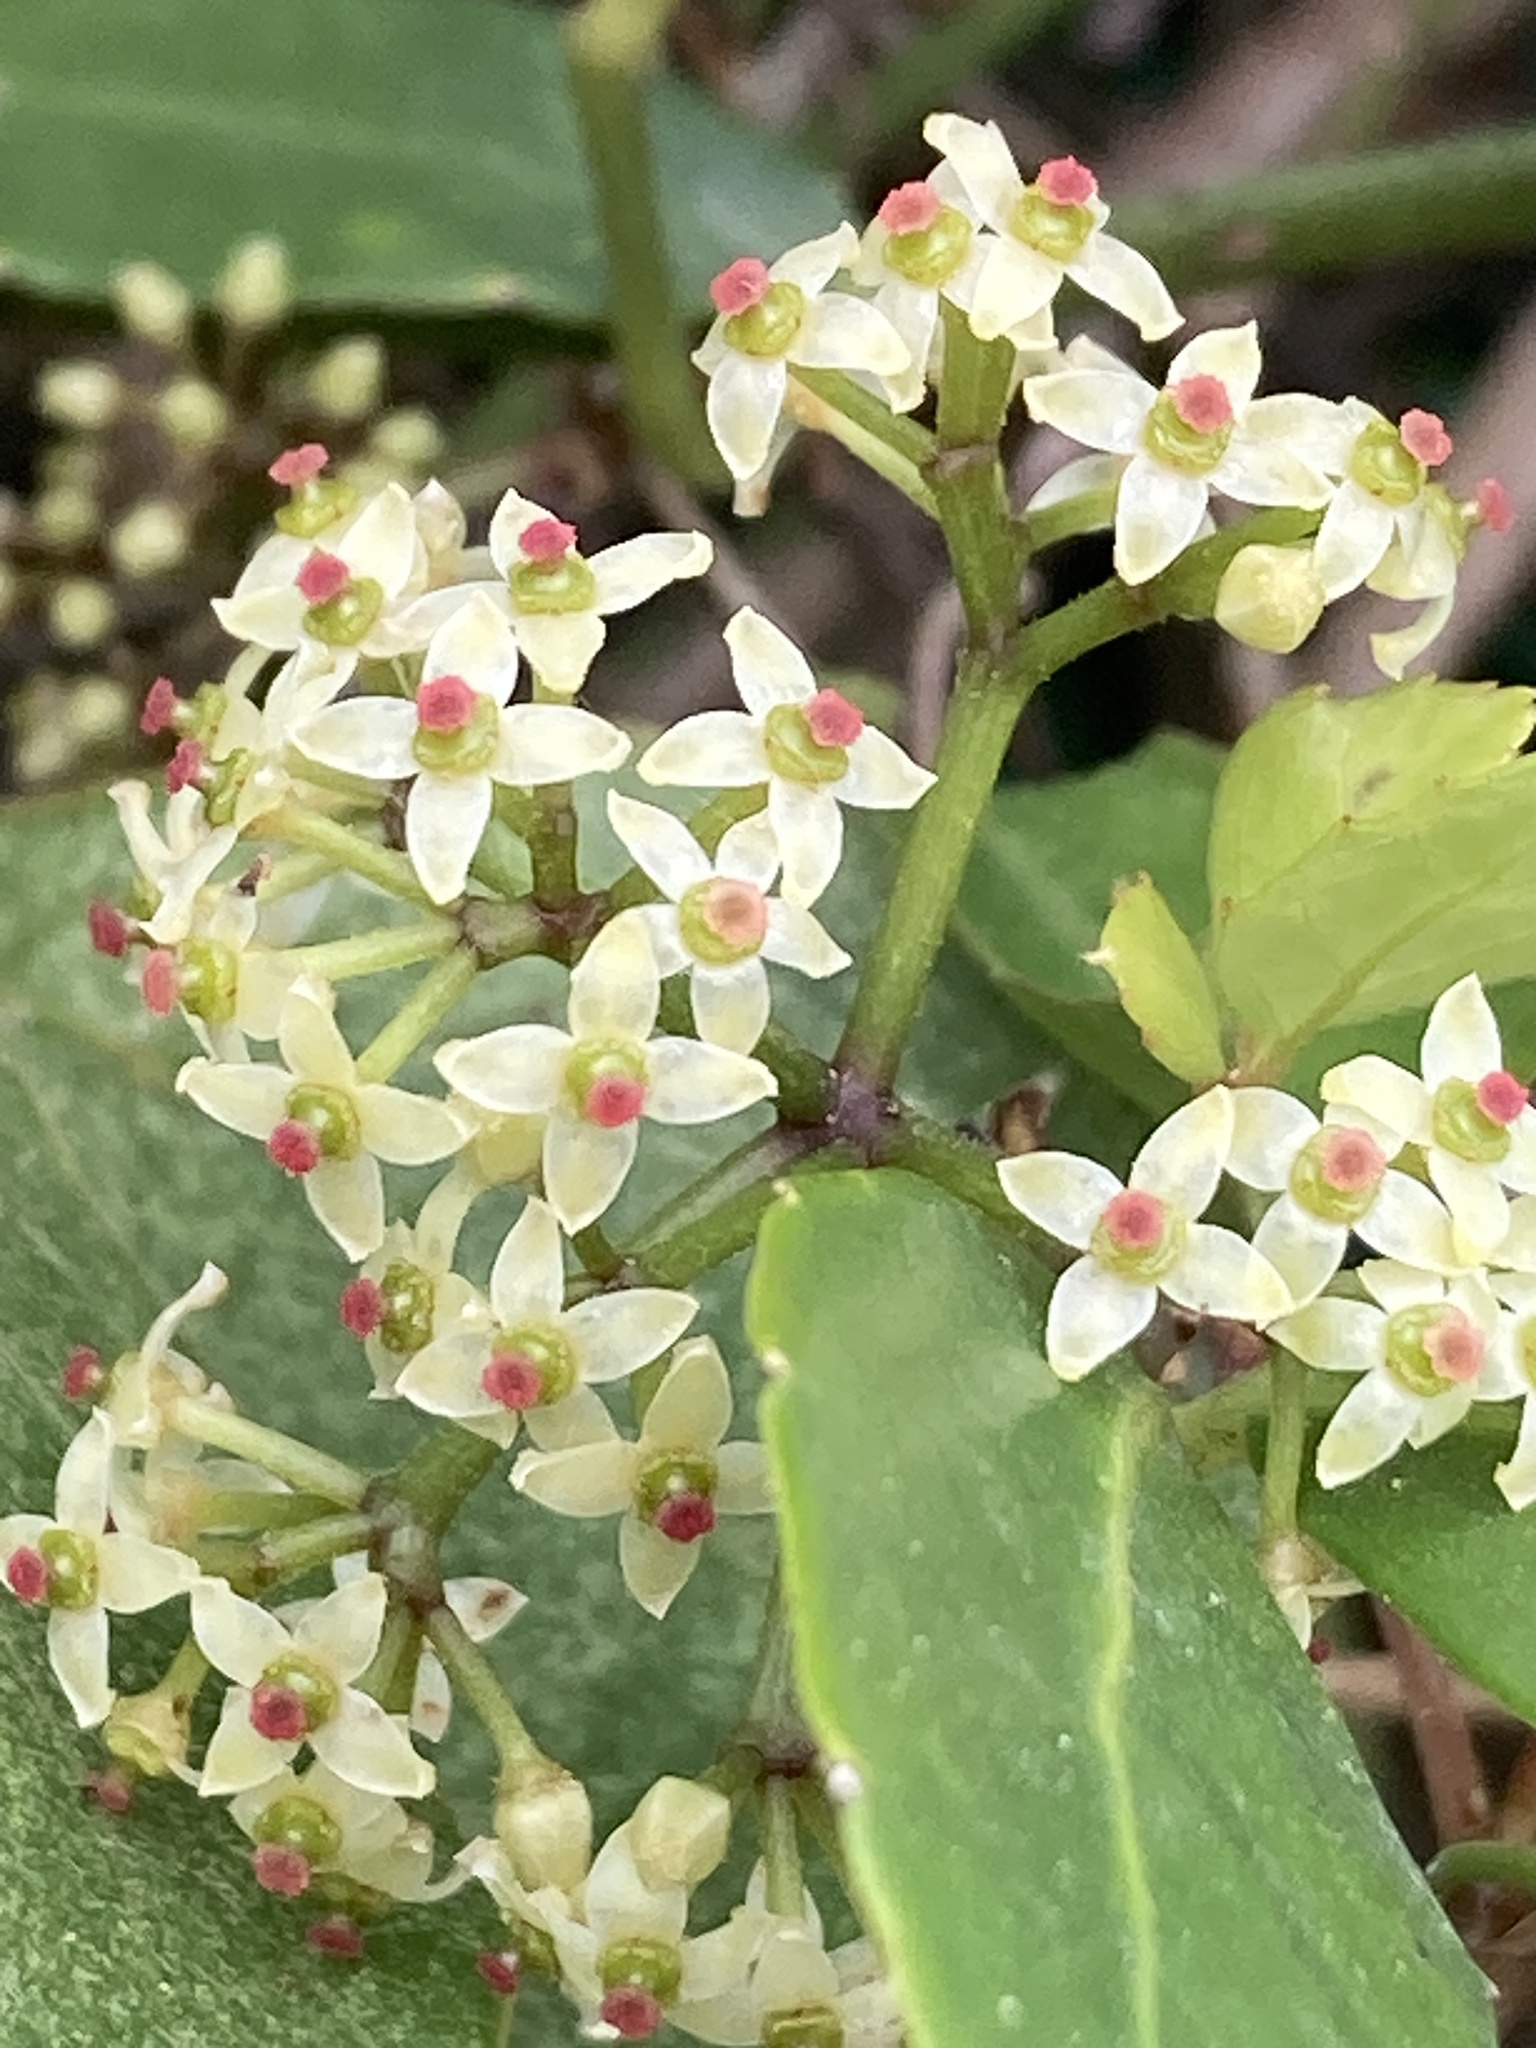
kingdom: Plantae
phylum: Tracheophyta
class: Magnoliopsida
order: Vitales
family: Vitaceae
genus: Tetrastigma
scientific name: Tetrastigma formosanum
